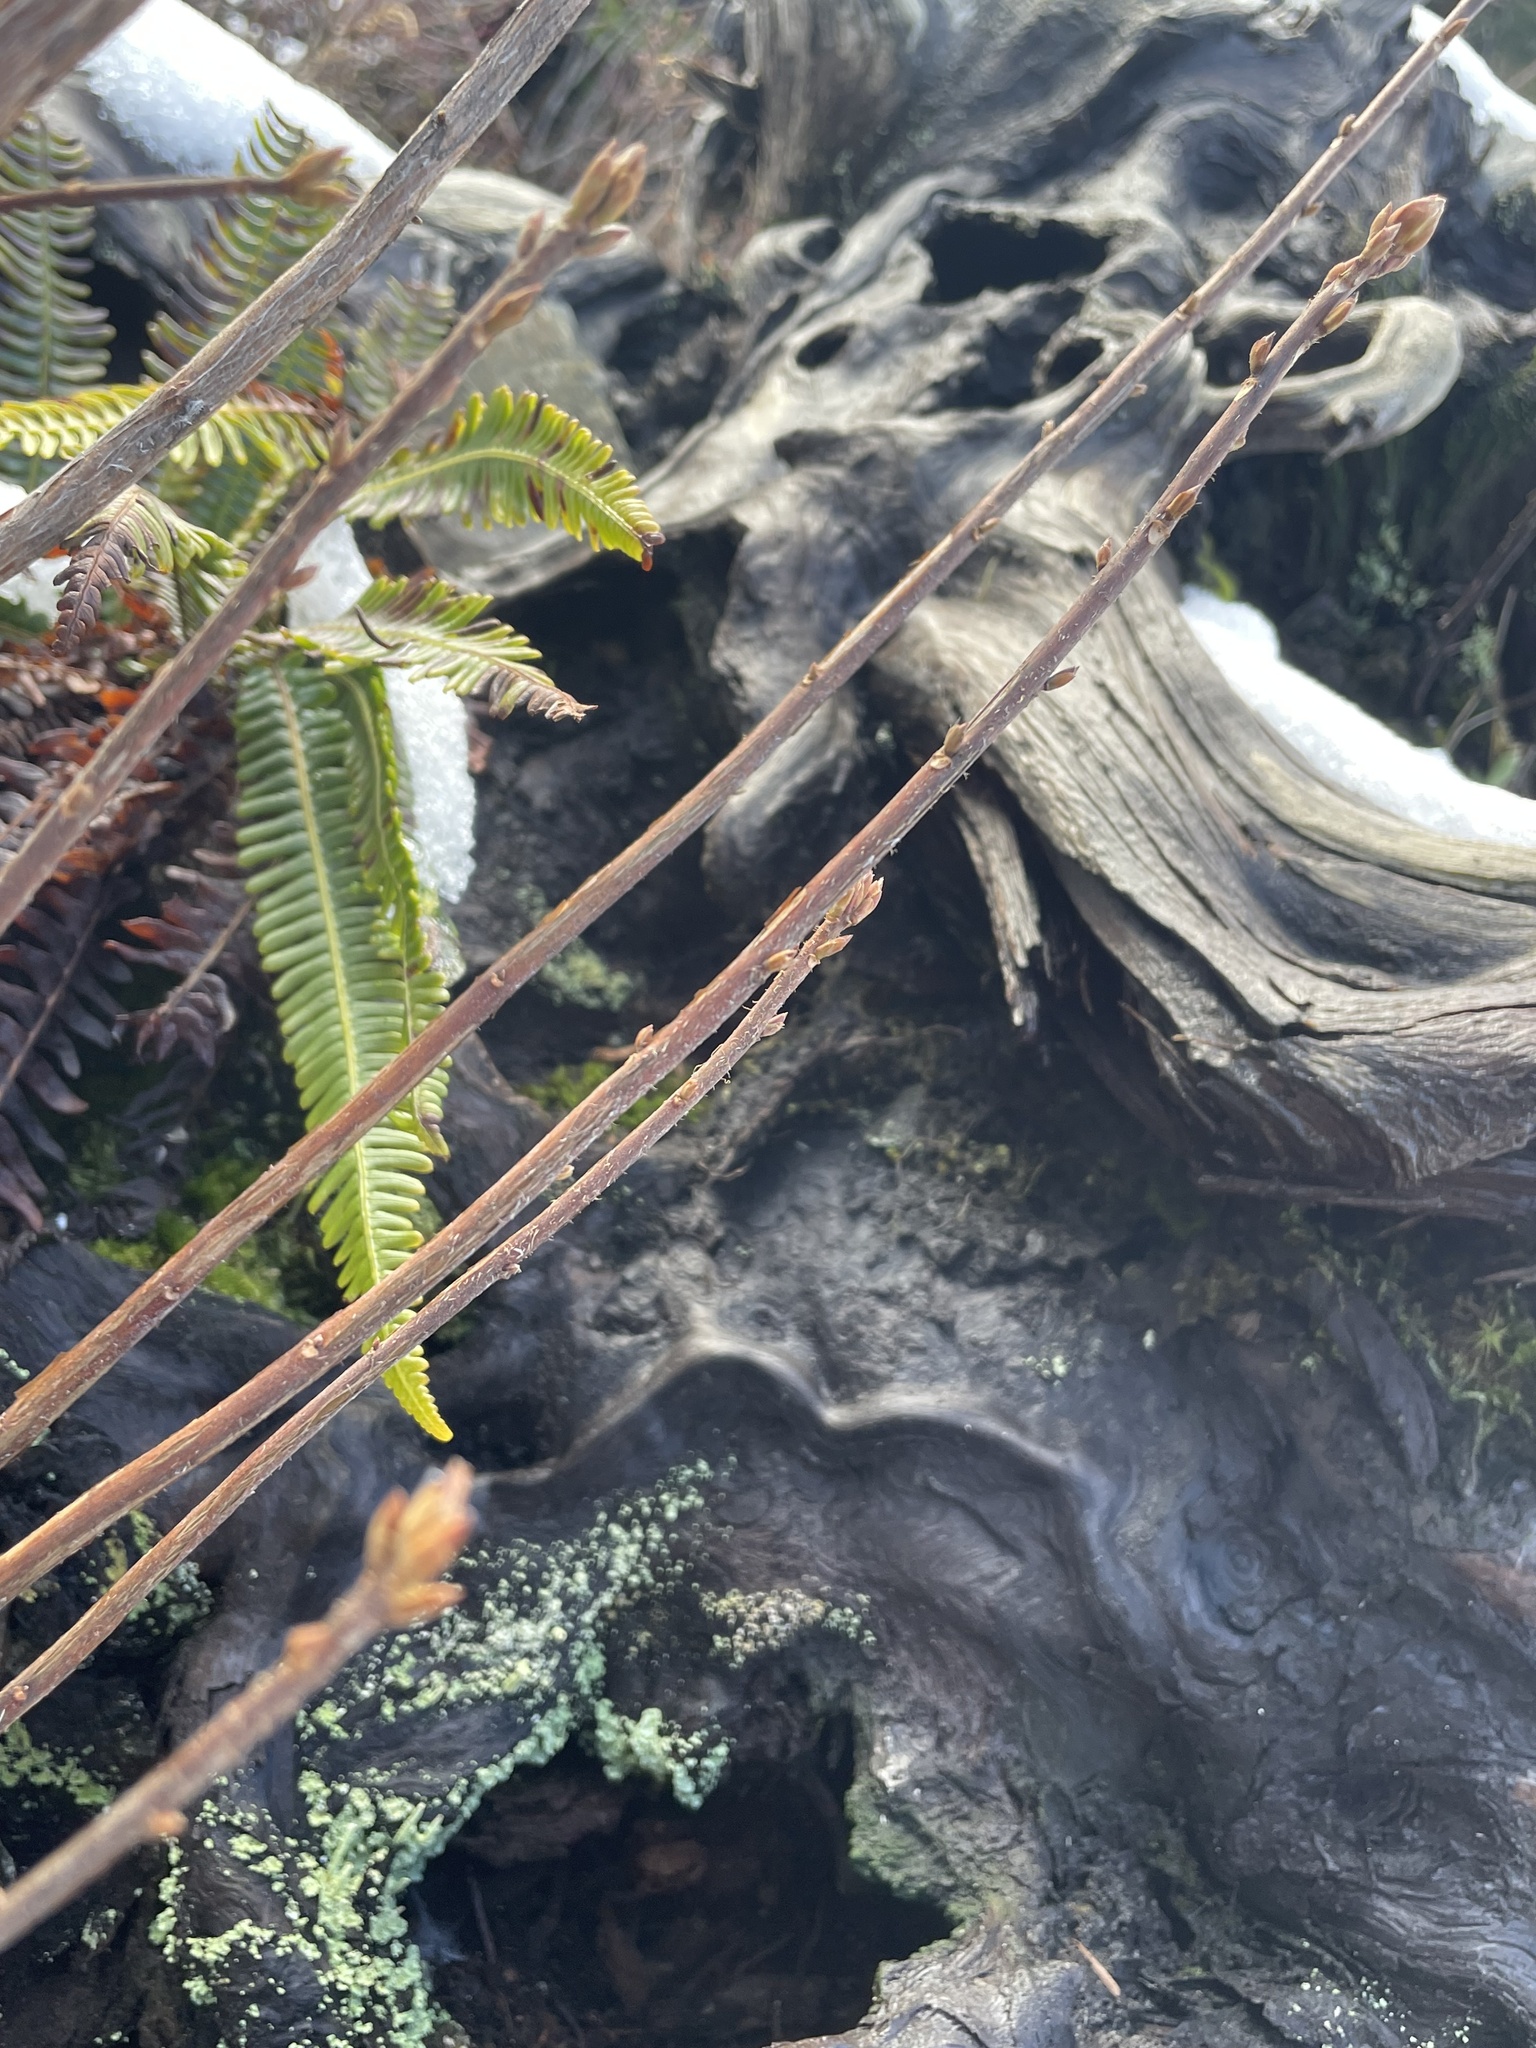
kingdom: Plantae
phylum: Tracheophyta
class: Polypodiopsida
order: Polypodiales
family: Blechnaceae
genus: Struthiopteris
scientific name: Struthiopteris spicant
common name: Deer fern
